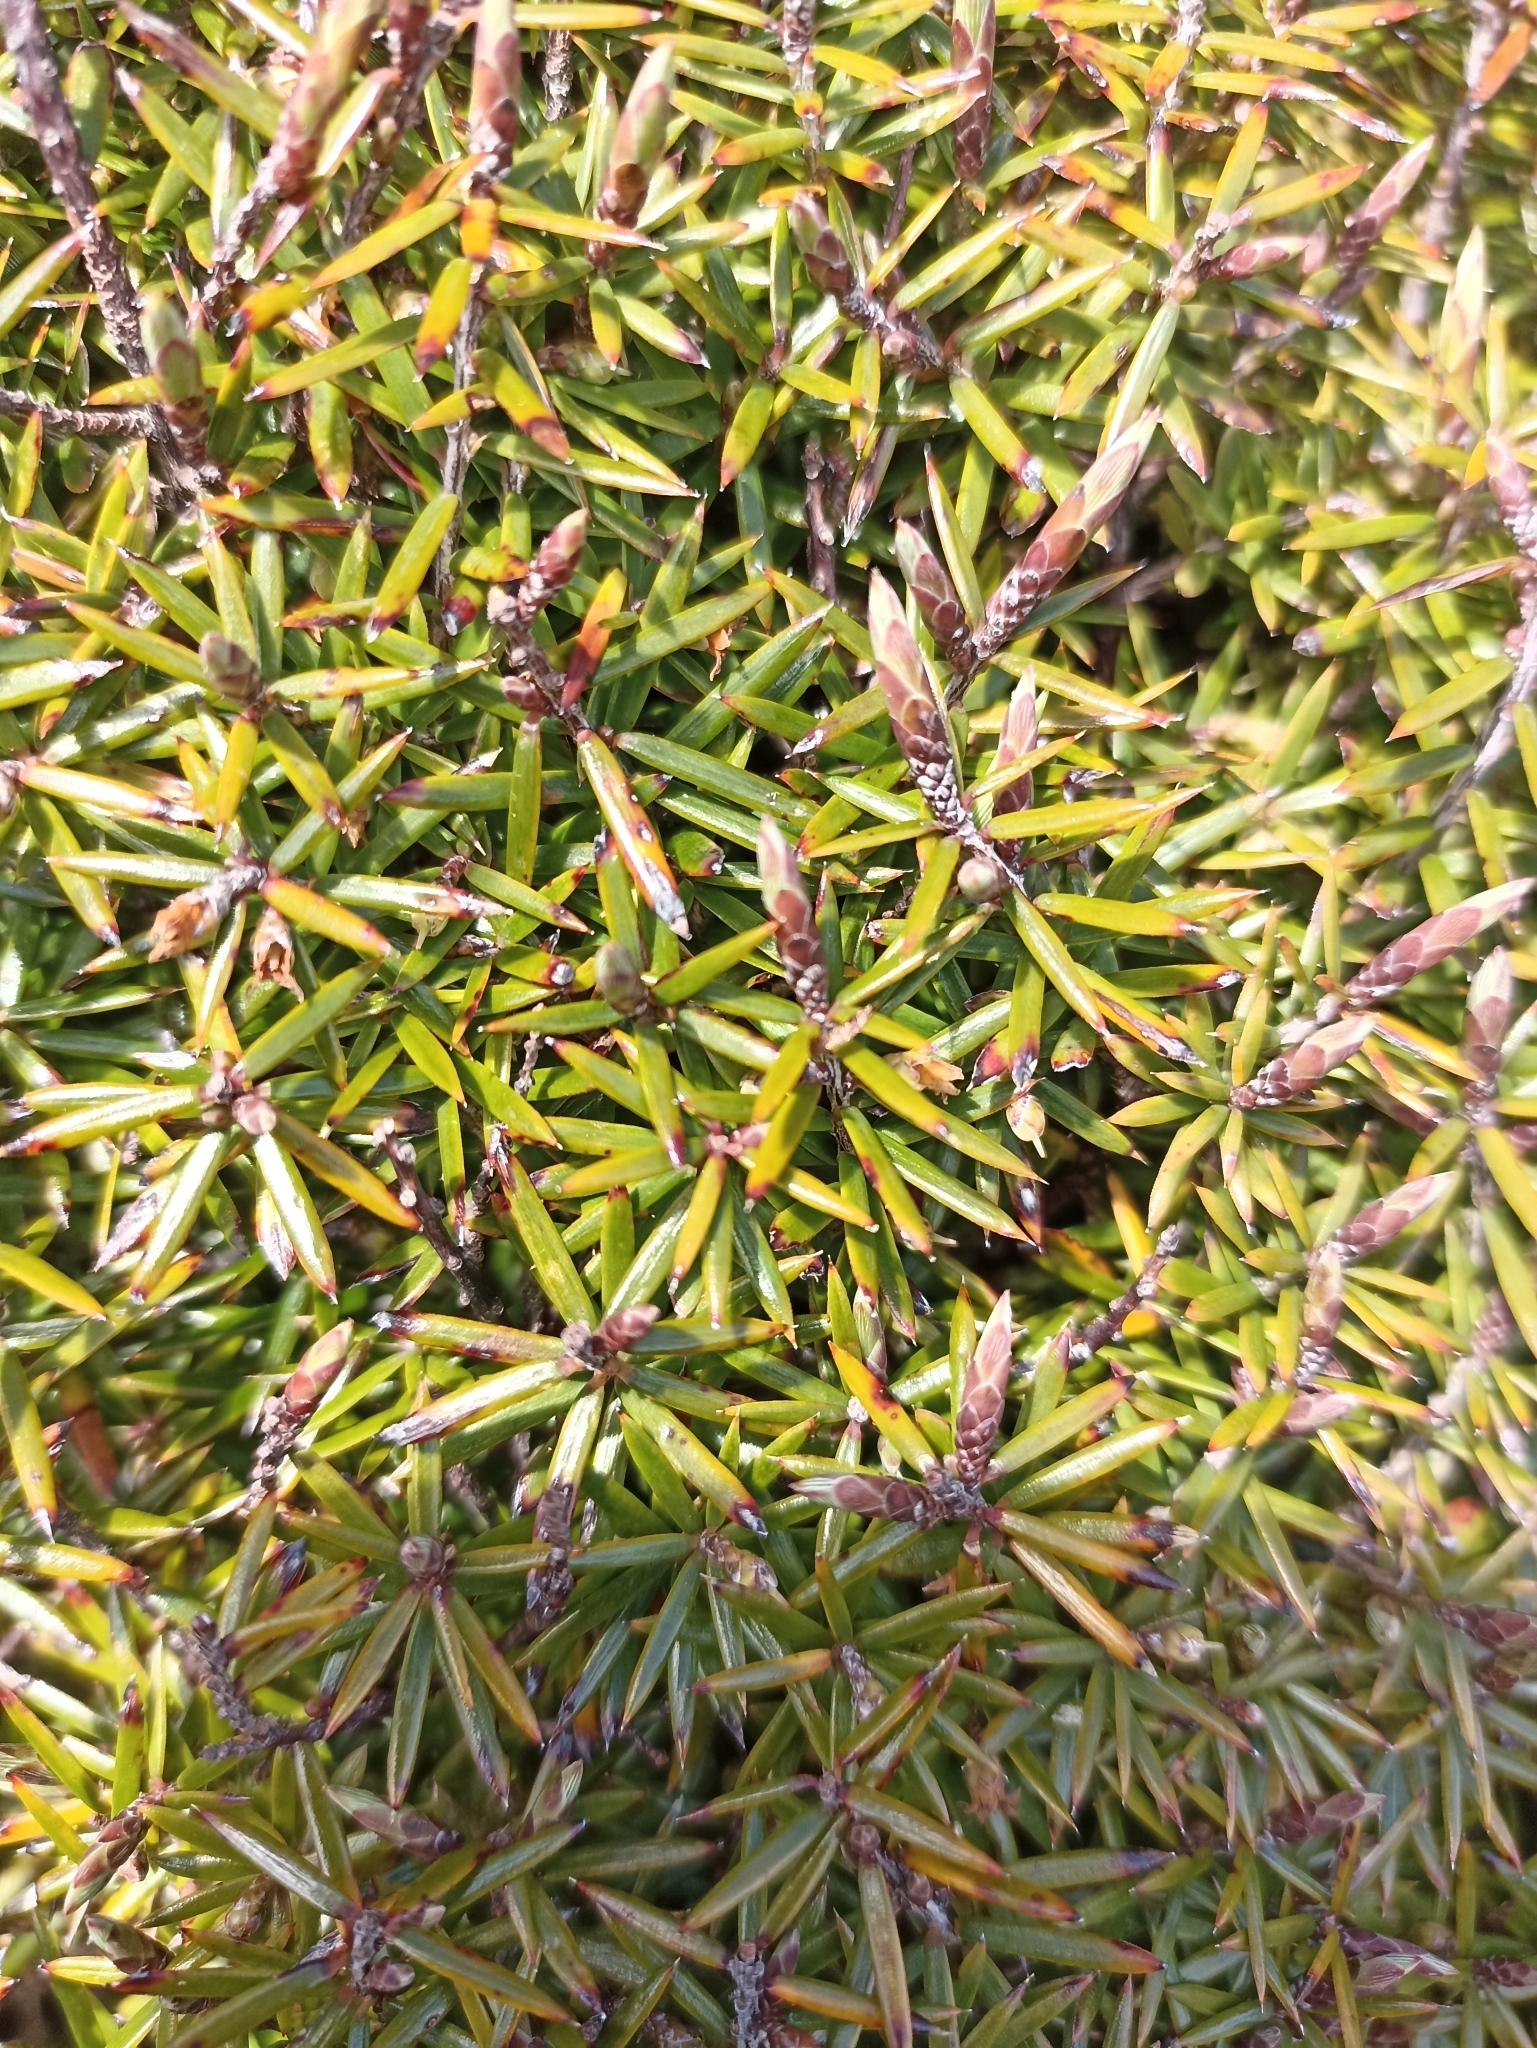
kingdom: Plantae
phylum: Tracheophyta
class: Magnoliopsida
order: Ericales
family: Ericaceae
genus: Leptecophylla
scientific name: Leptecophylla juniperina
